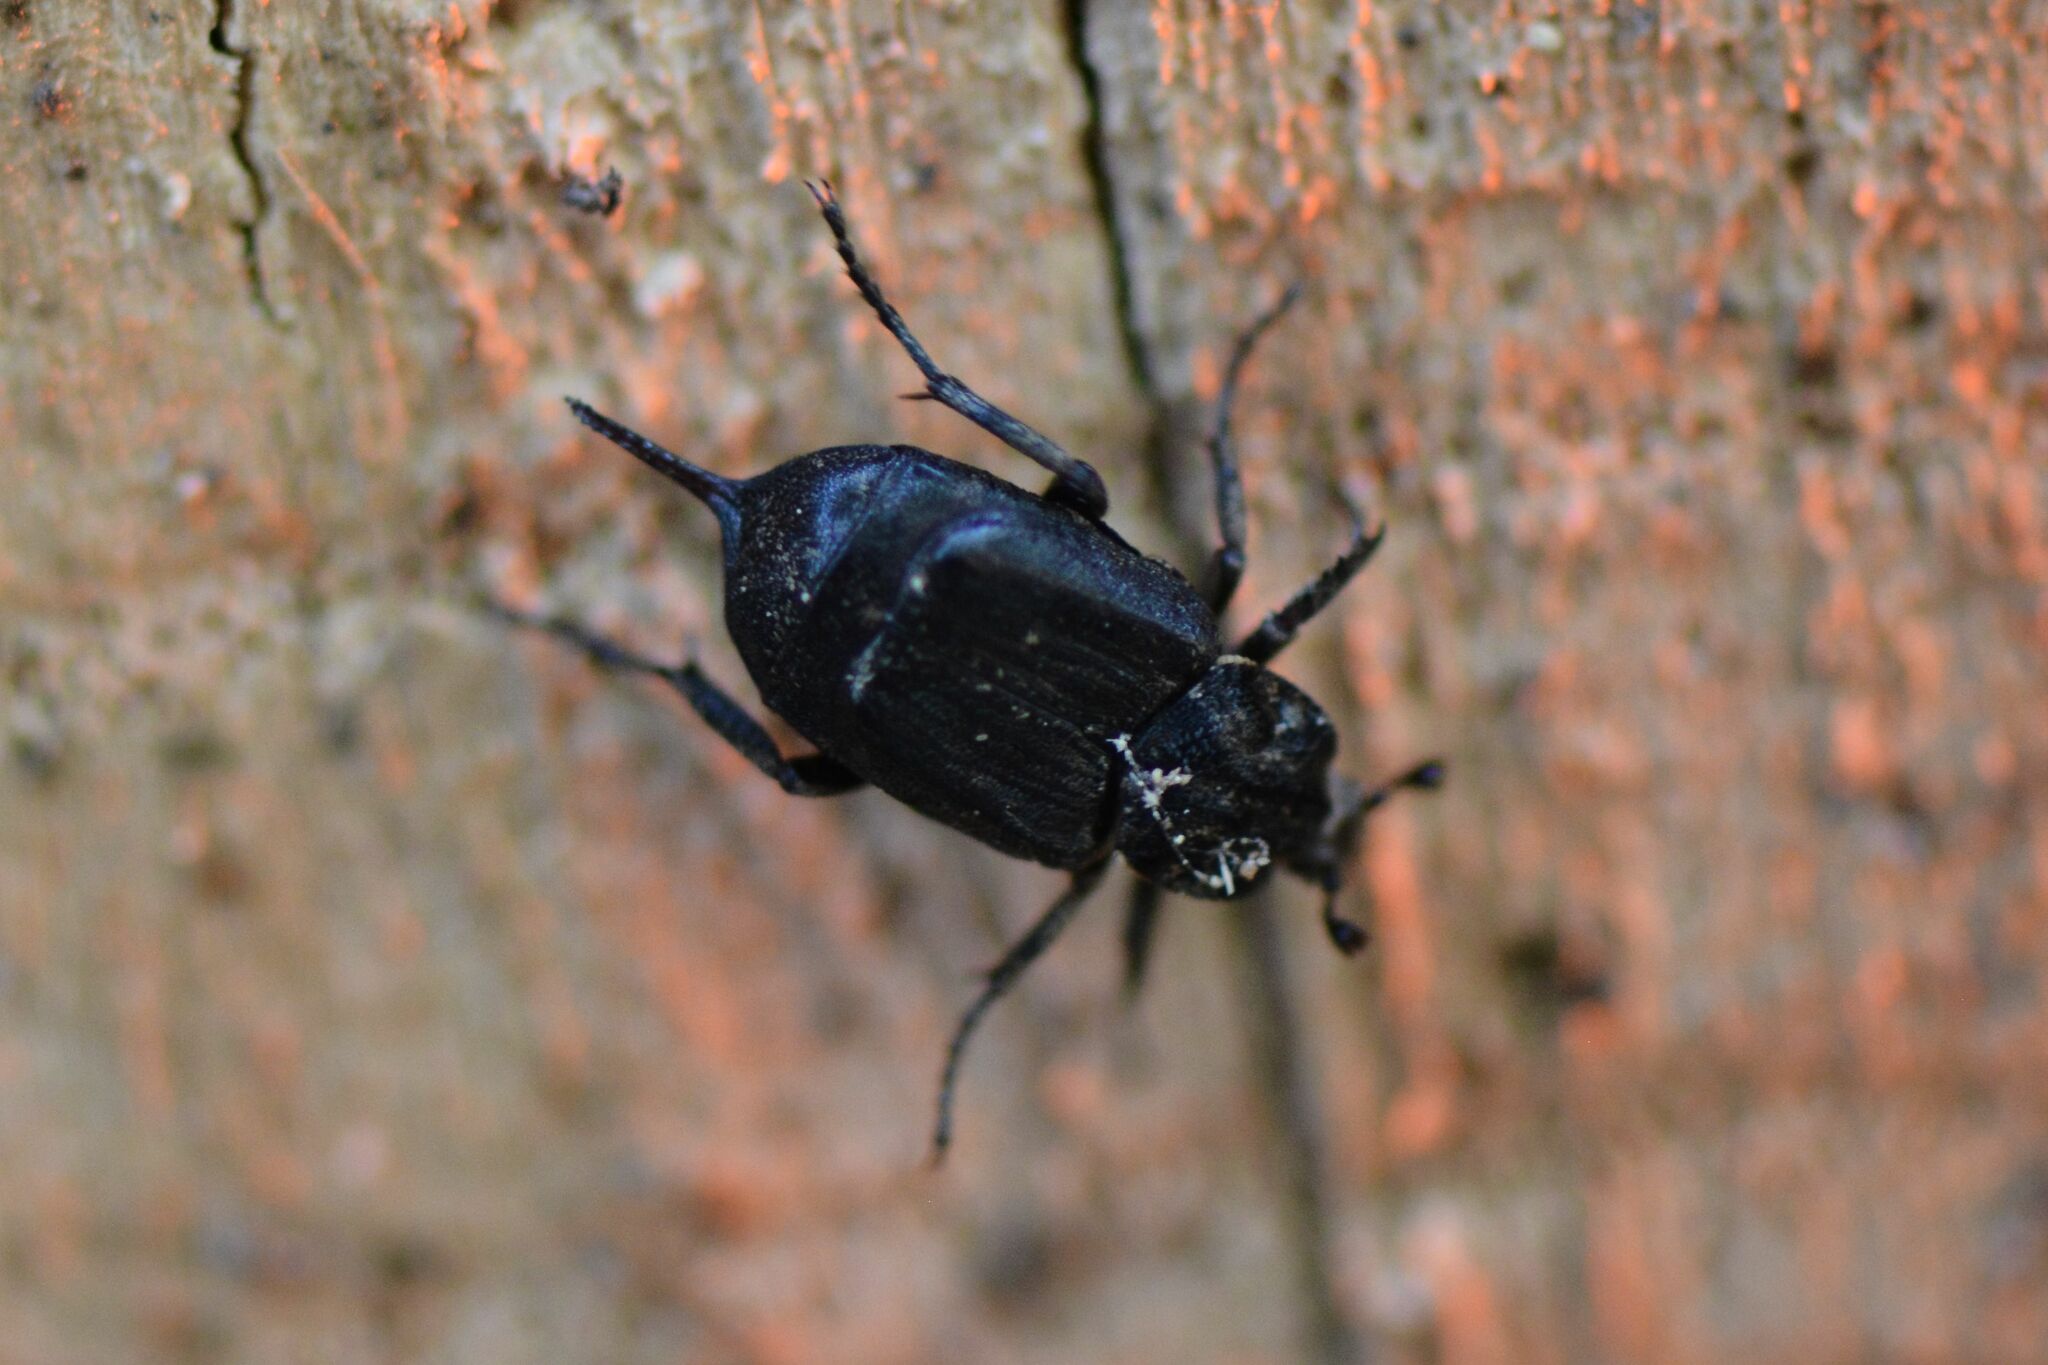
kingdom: Animalia
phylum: Arthropoda
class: Insecta
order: Coleoptera
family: Scarabaeidae
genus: Valgus
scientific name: Valgus hemipterus
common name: Bug flower chafer
